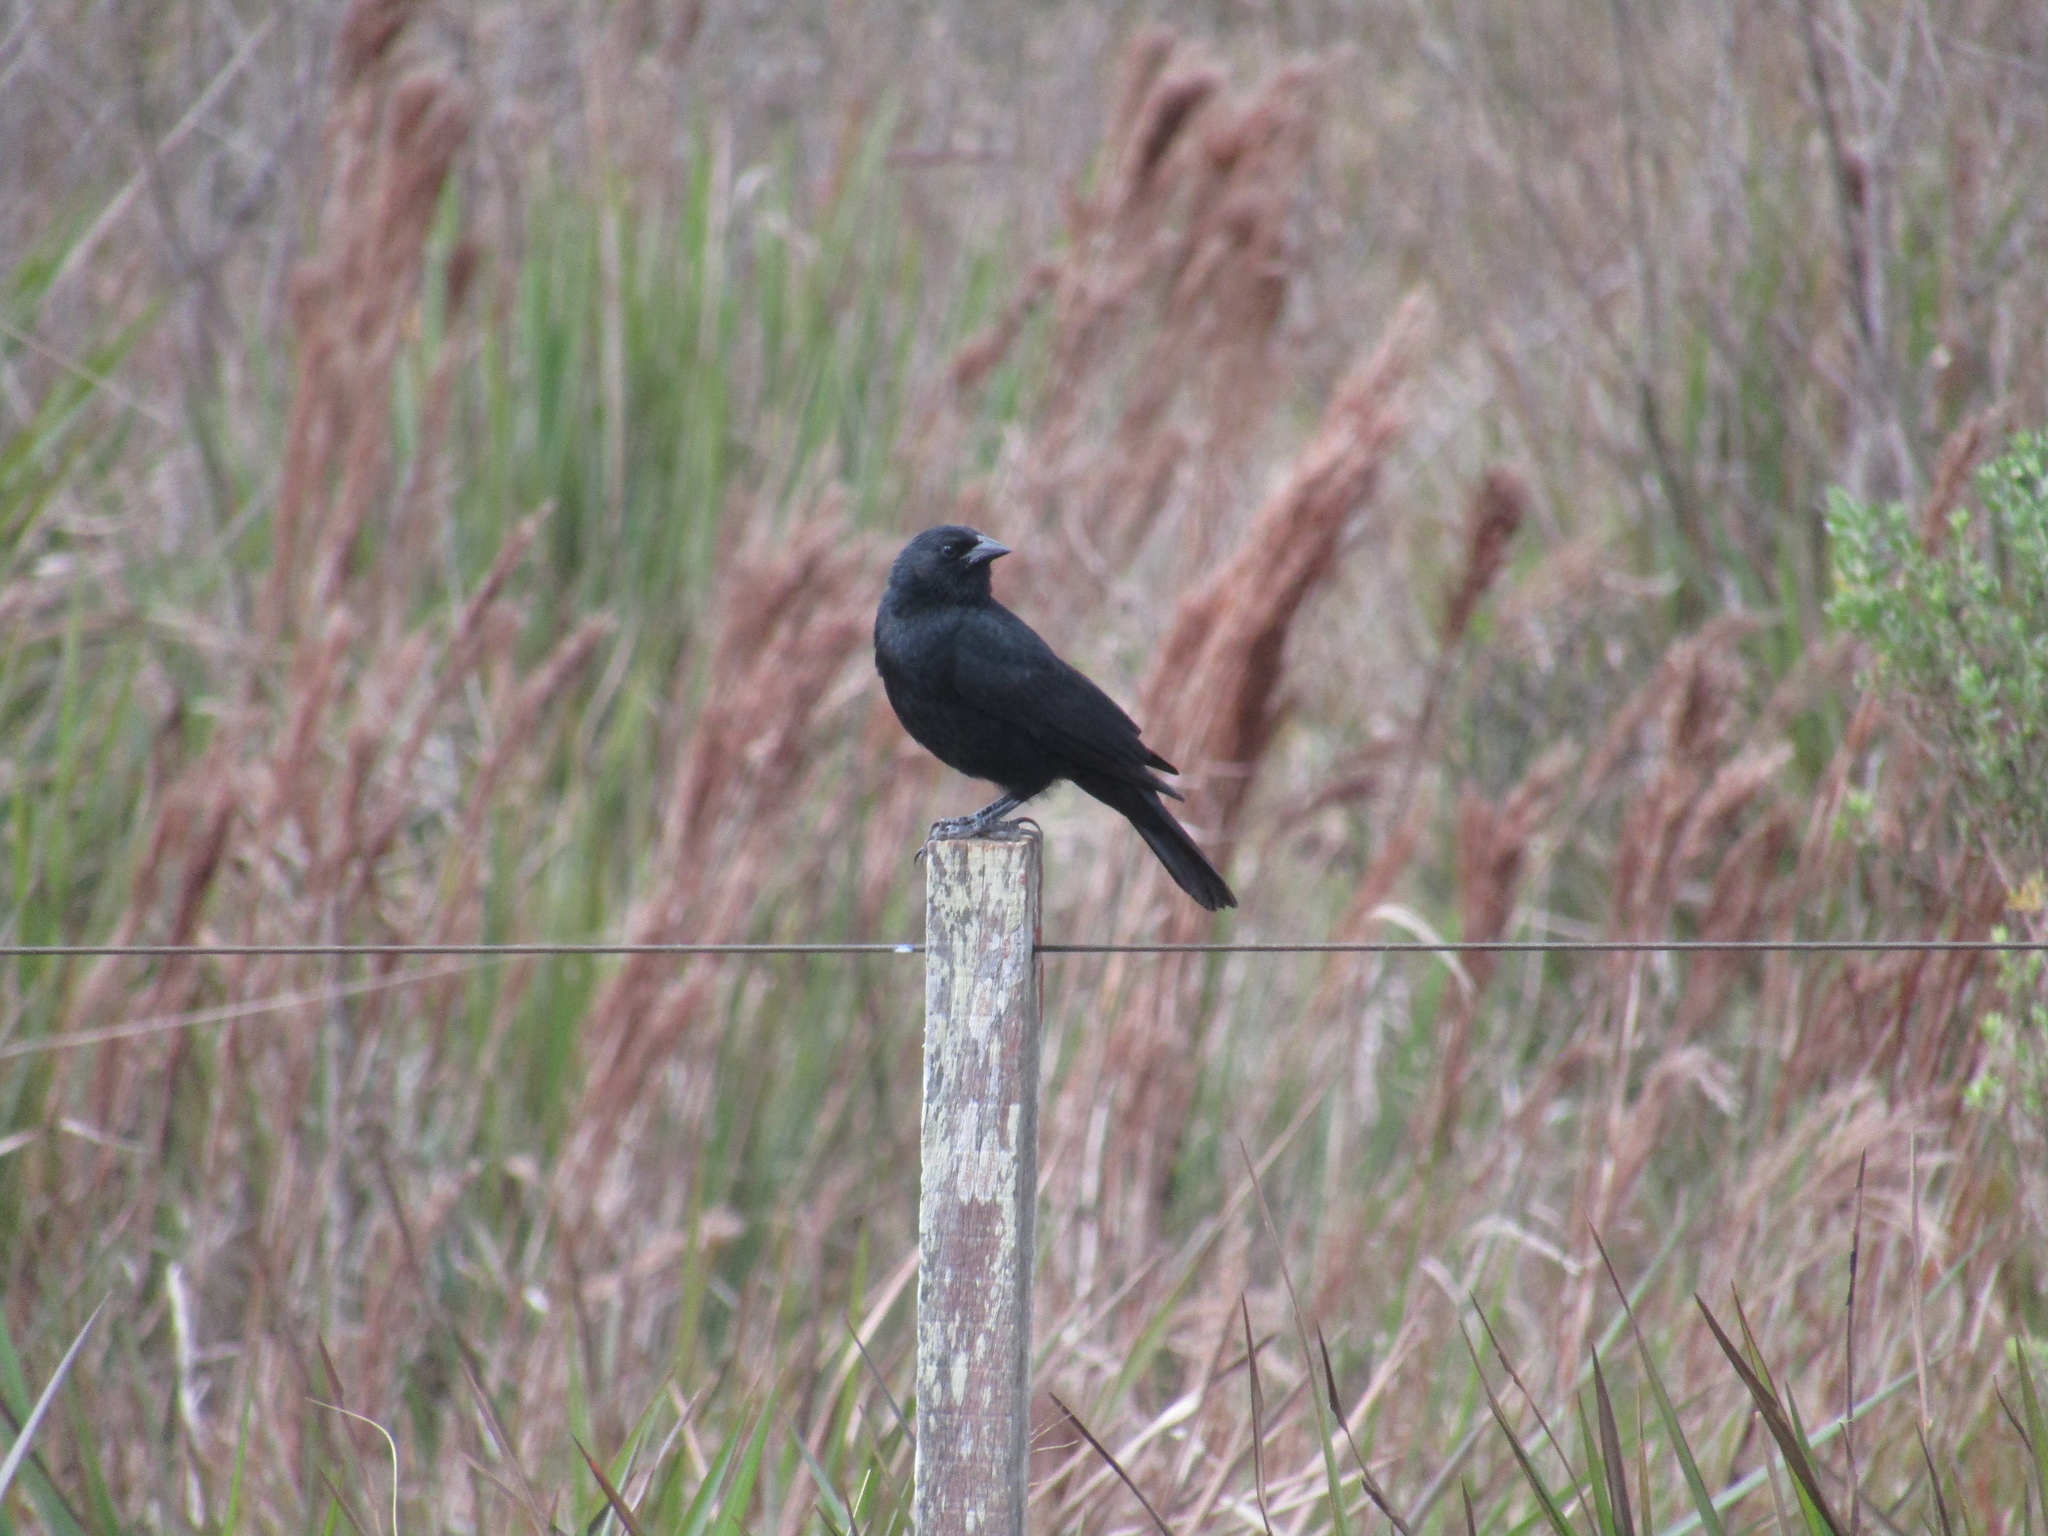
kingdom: Animalia
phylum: Chordata
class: Aves
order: Passeriformes
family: Icteridae
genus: Gnorimopsar
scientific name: Gnorimopsar chopi
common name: Chopi blackbird
